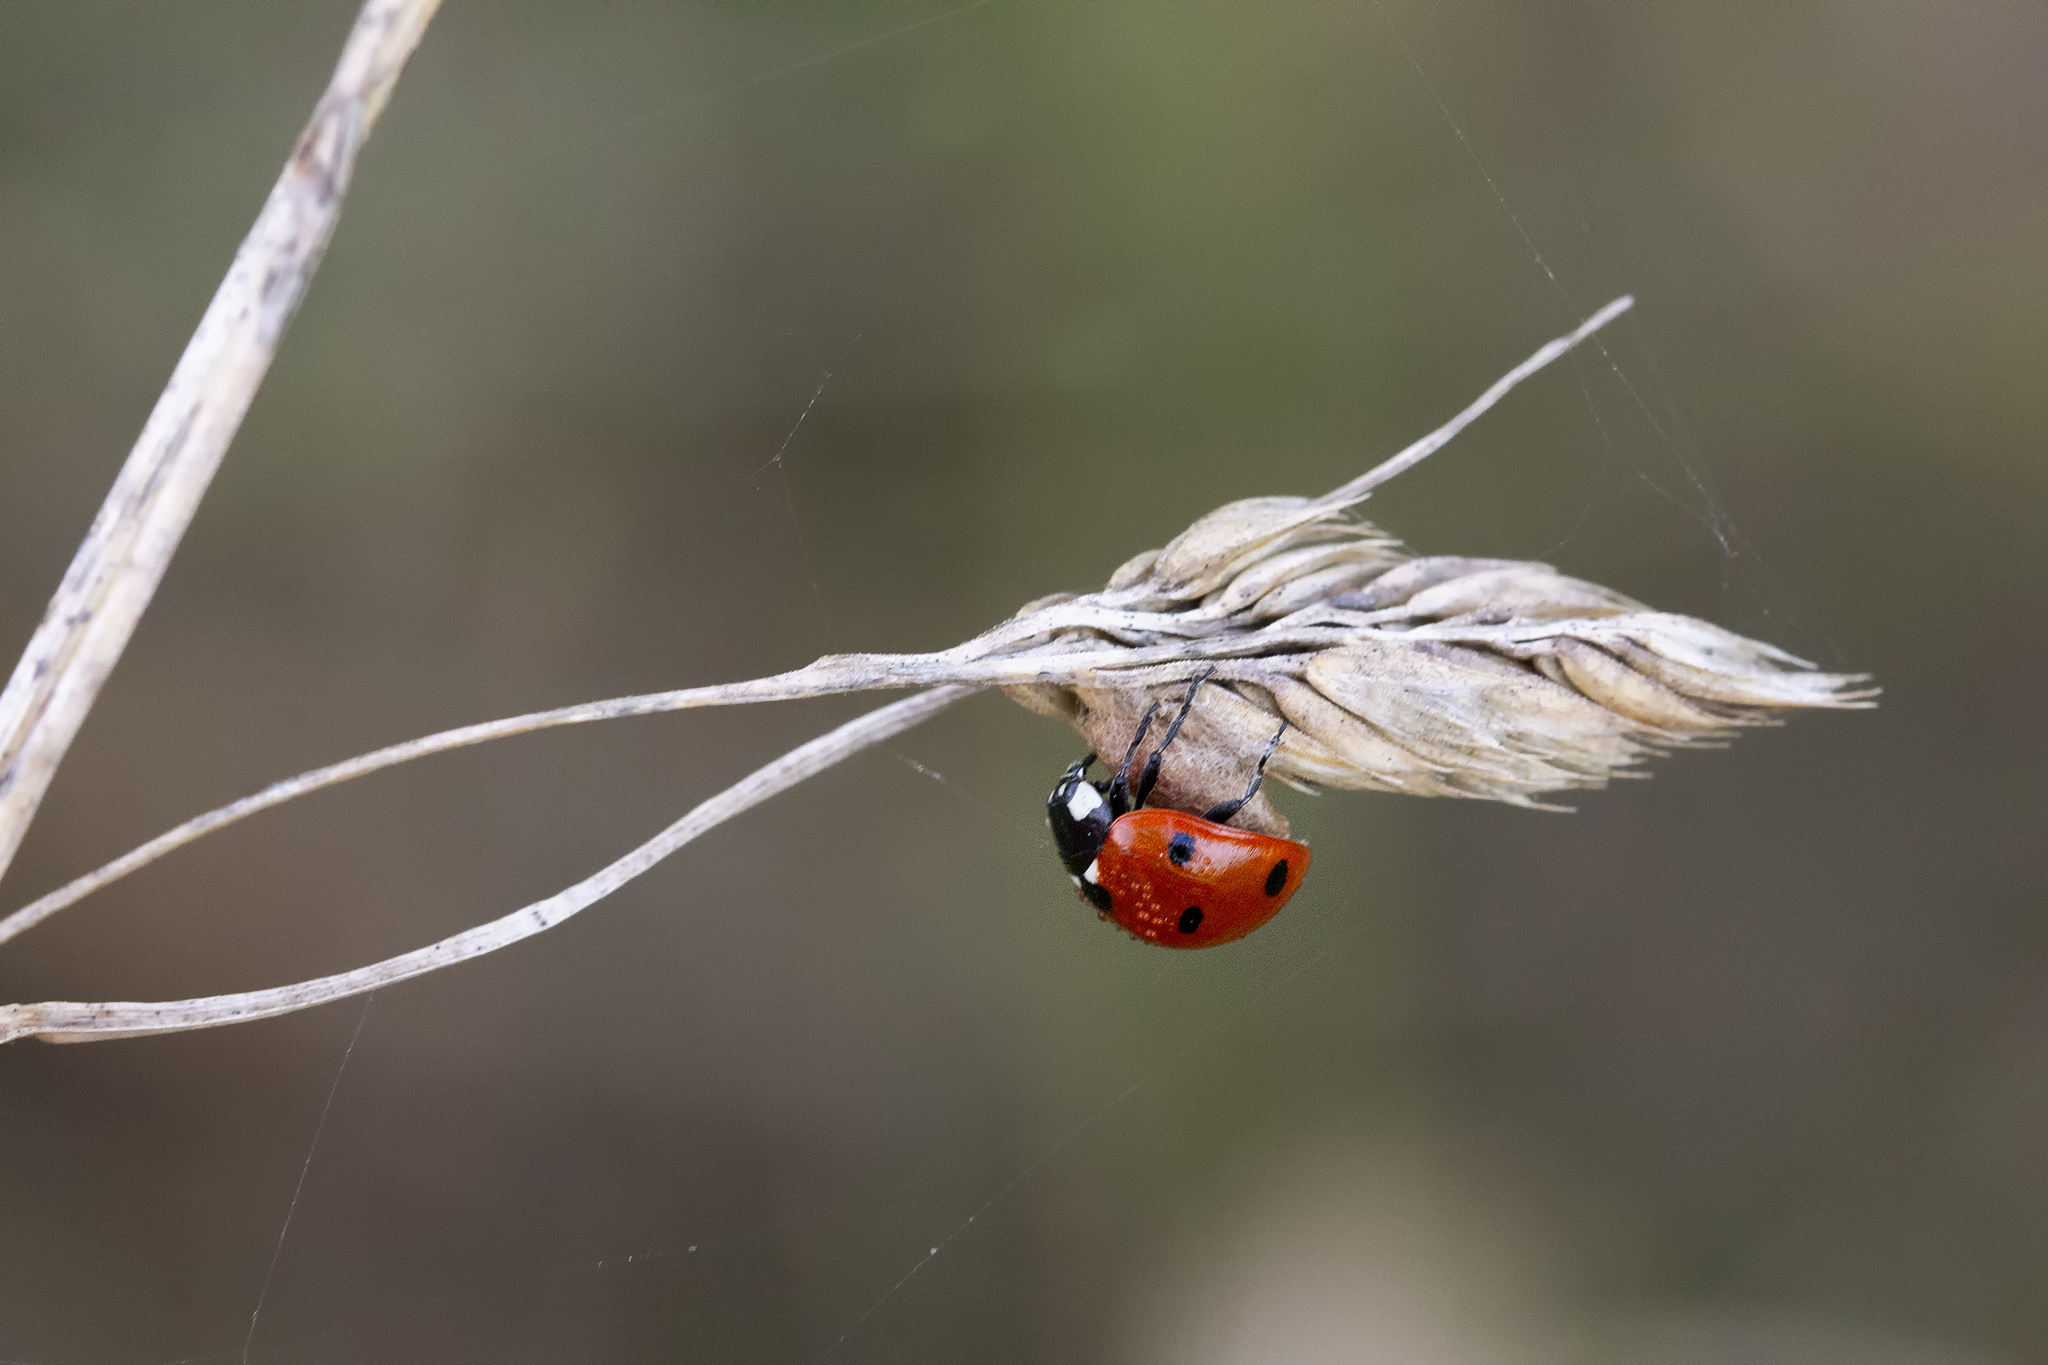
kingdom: Viruses
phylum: Pisuviricota
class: Pisoniviricetes
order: Picornavirales
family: Iflaviridae
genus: Iflavirus
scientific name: Iflavirus dinococcinellae
